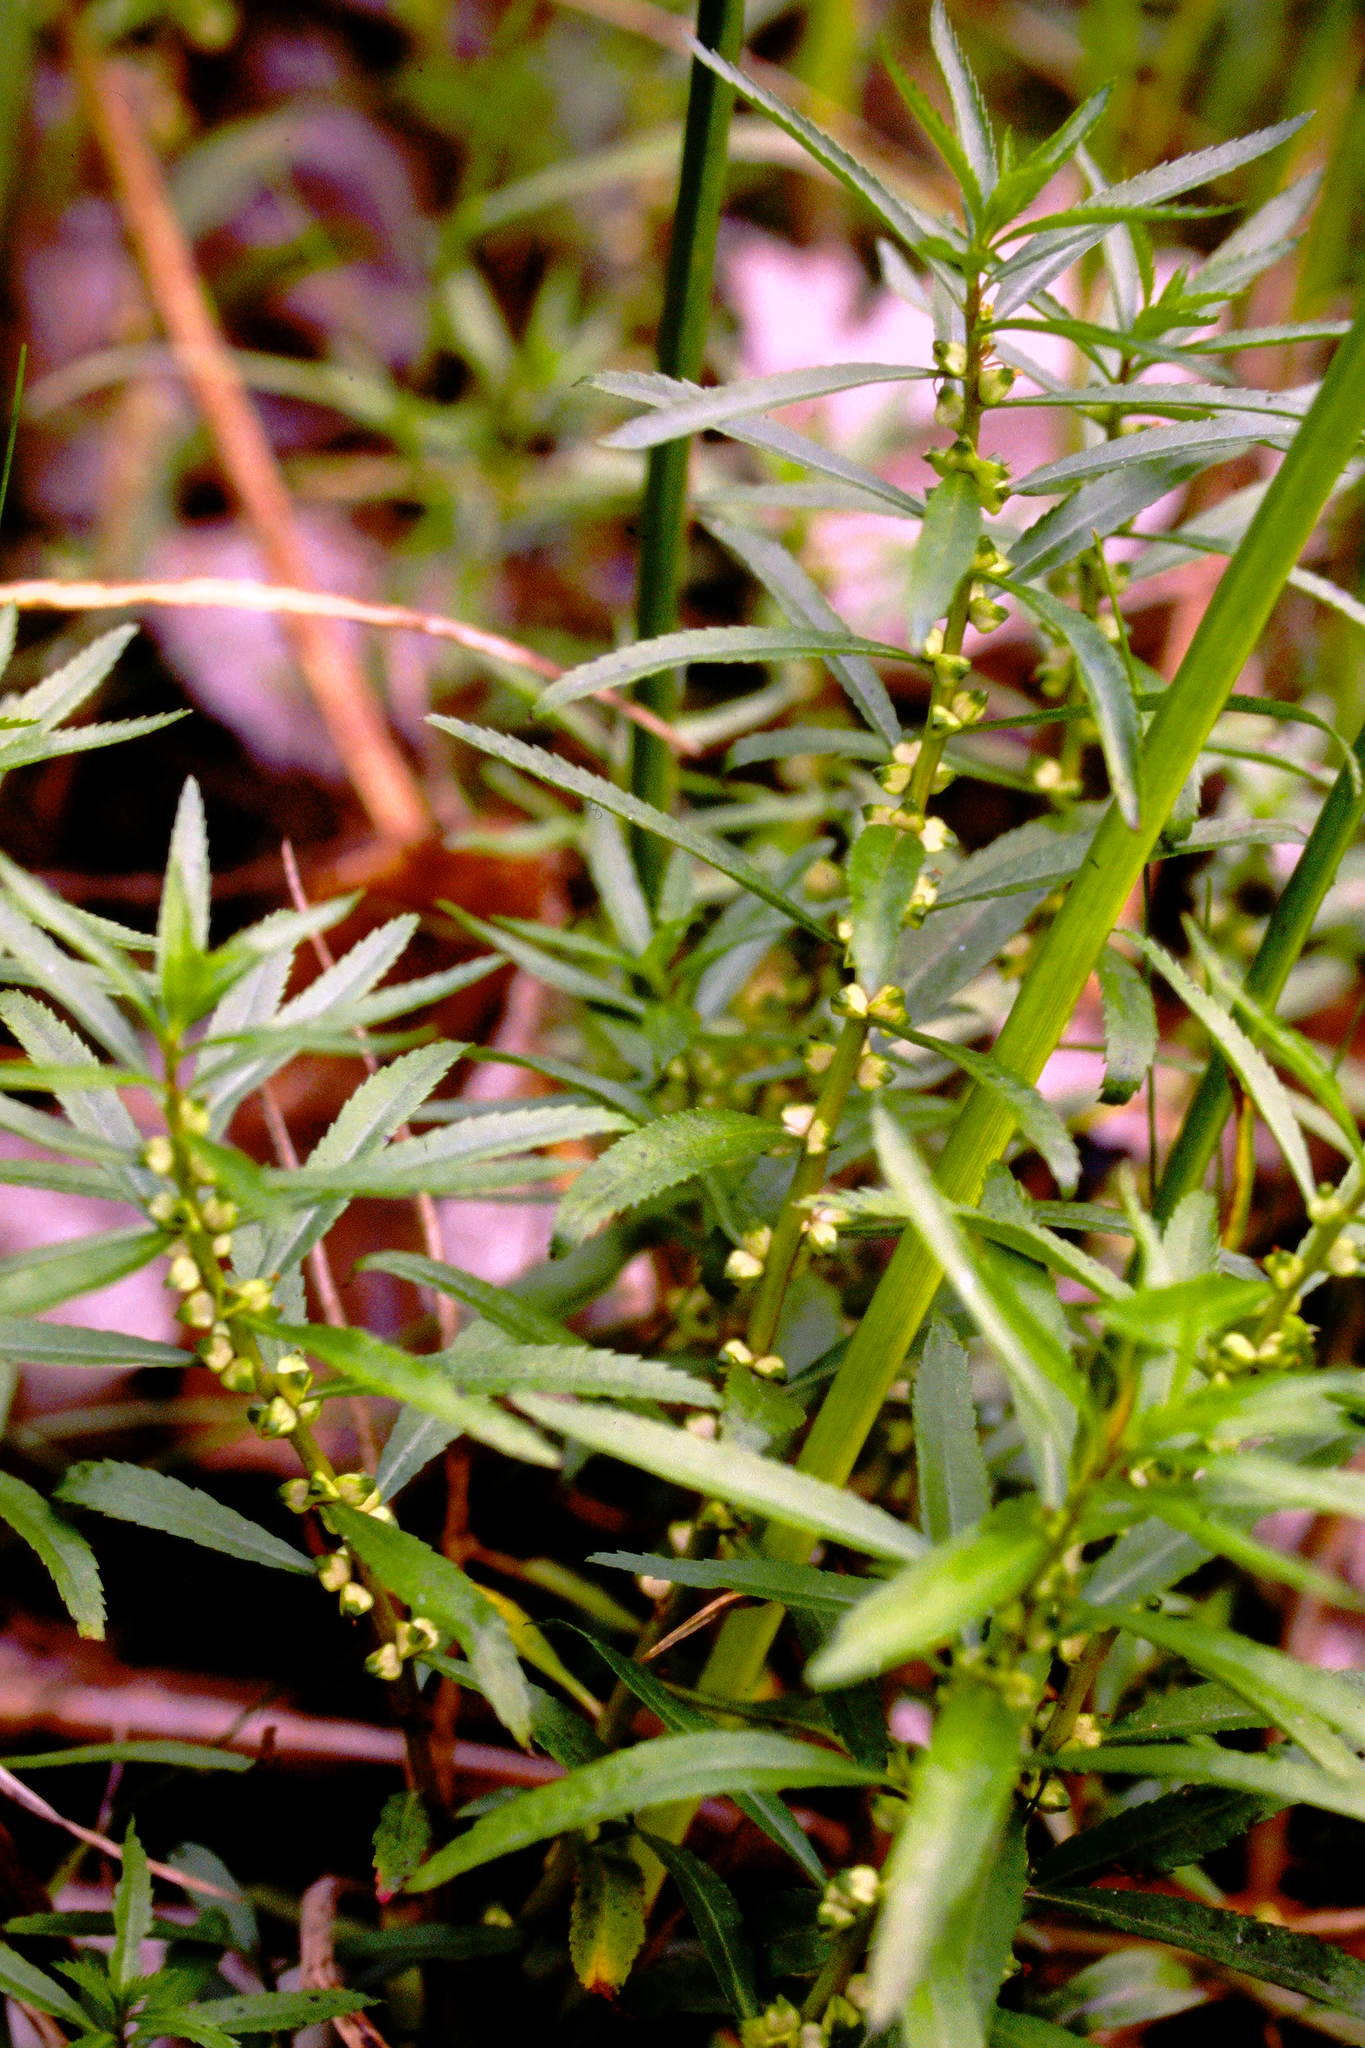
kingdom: Plantae
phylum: Tracheophyta
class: Magnoliopsida
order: Saxifragales
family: Haloragaceae
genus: Proserpinaca
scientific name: Proserpinaca palustris
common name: Marsh mermaidweed
